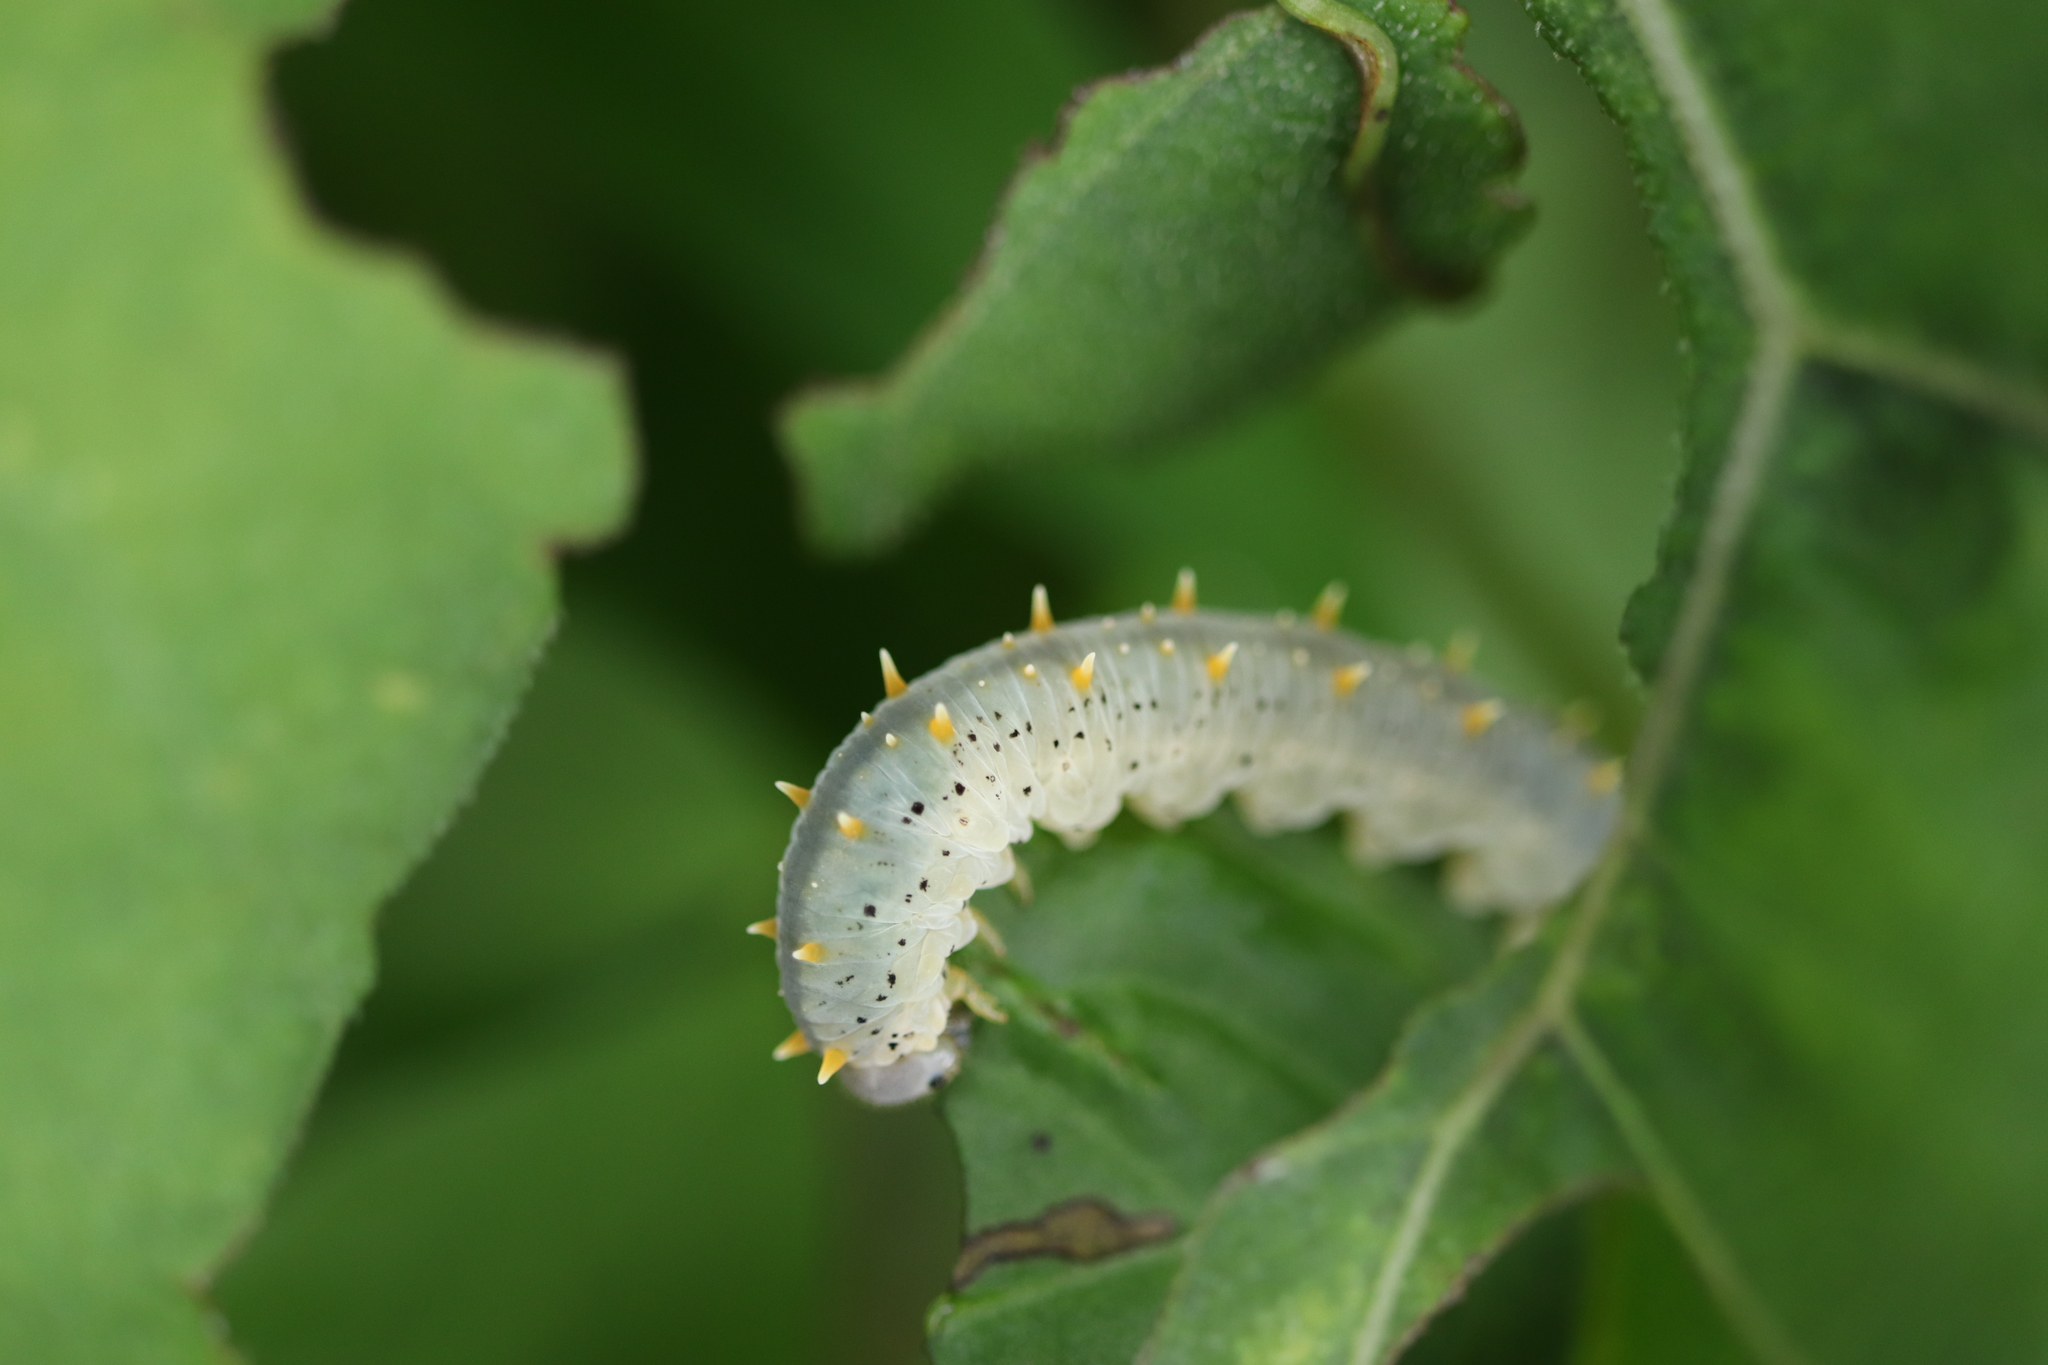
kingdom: Animalia
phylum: Arthropoda
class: Insecta
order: Hymenoptera
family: Tenthredinidae
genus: Siobla
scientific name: Siobla ferox
